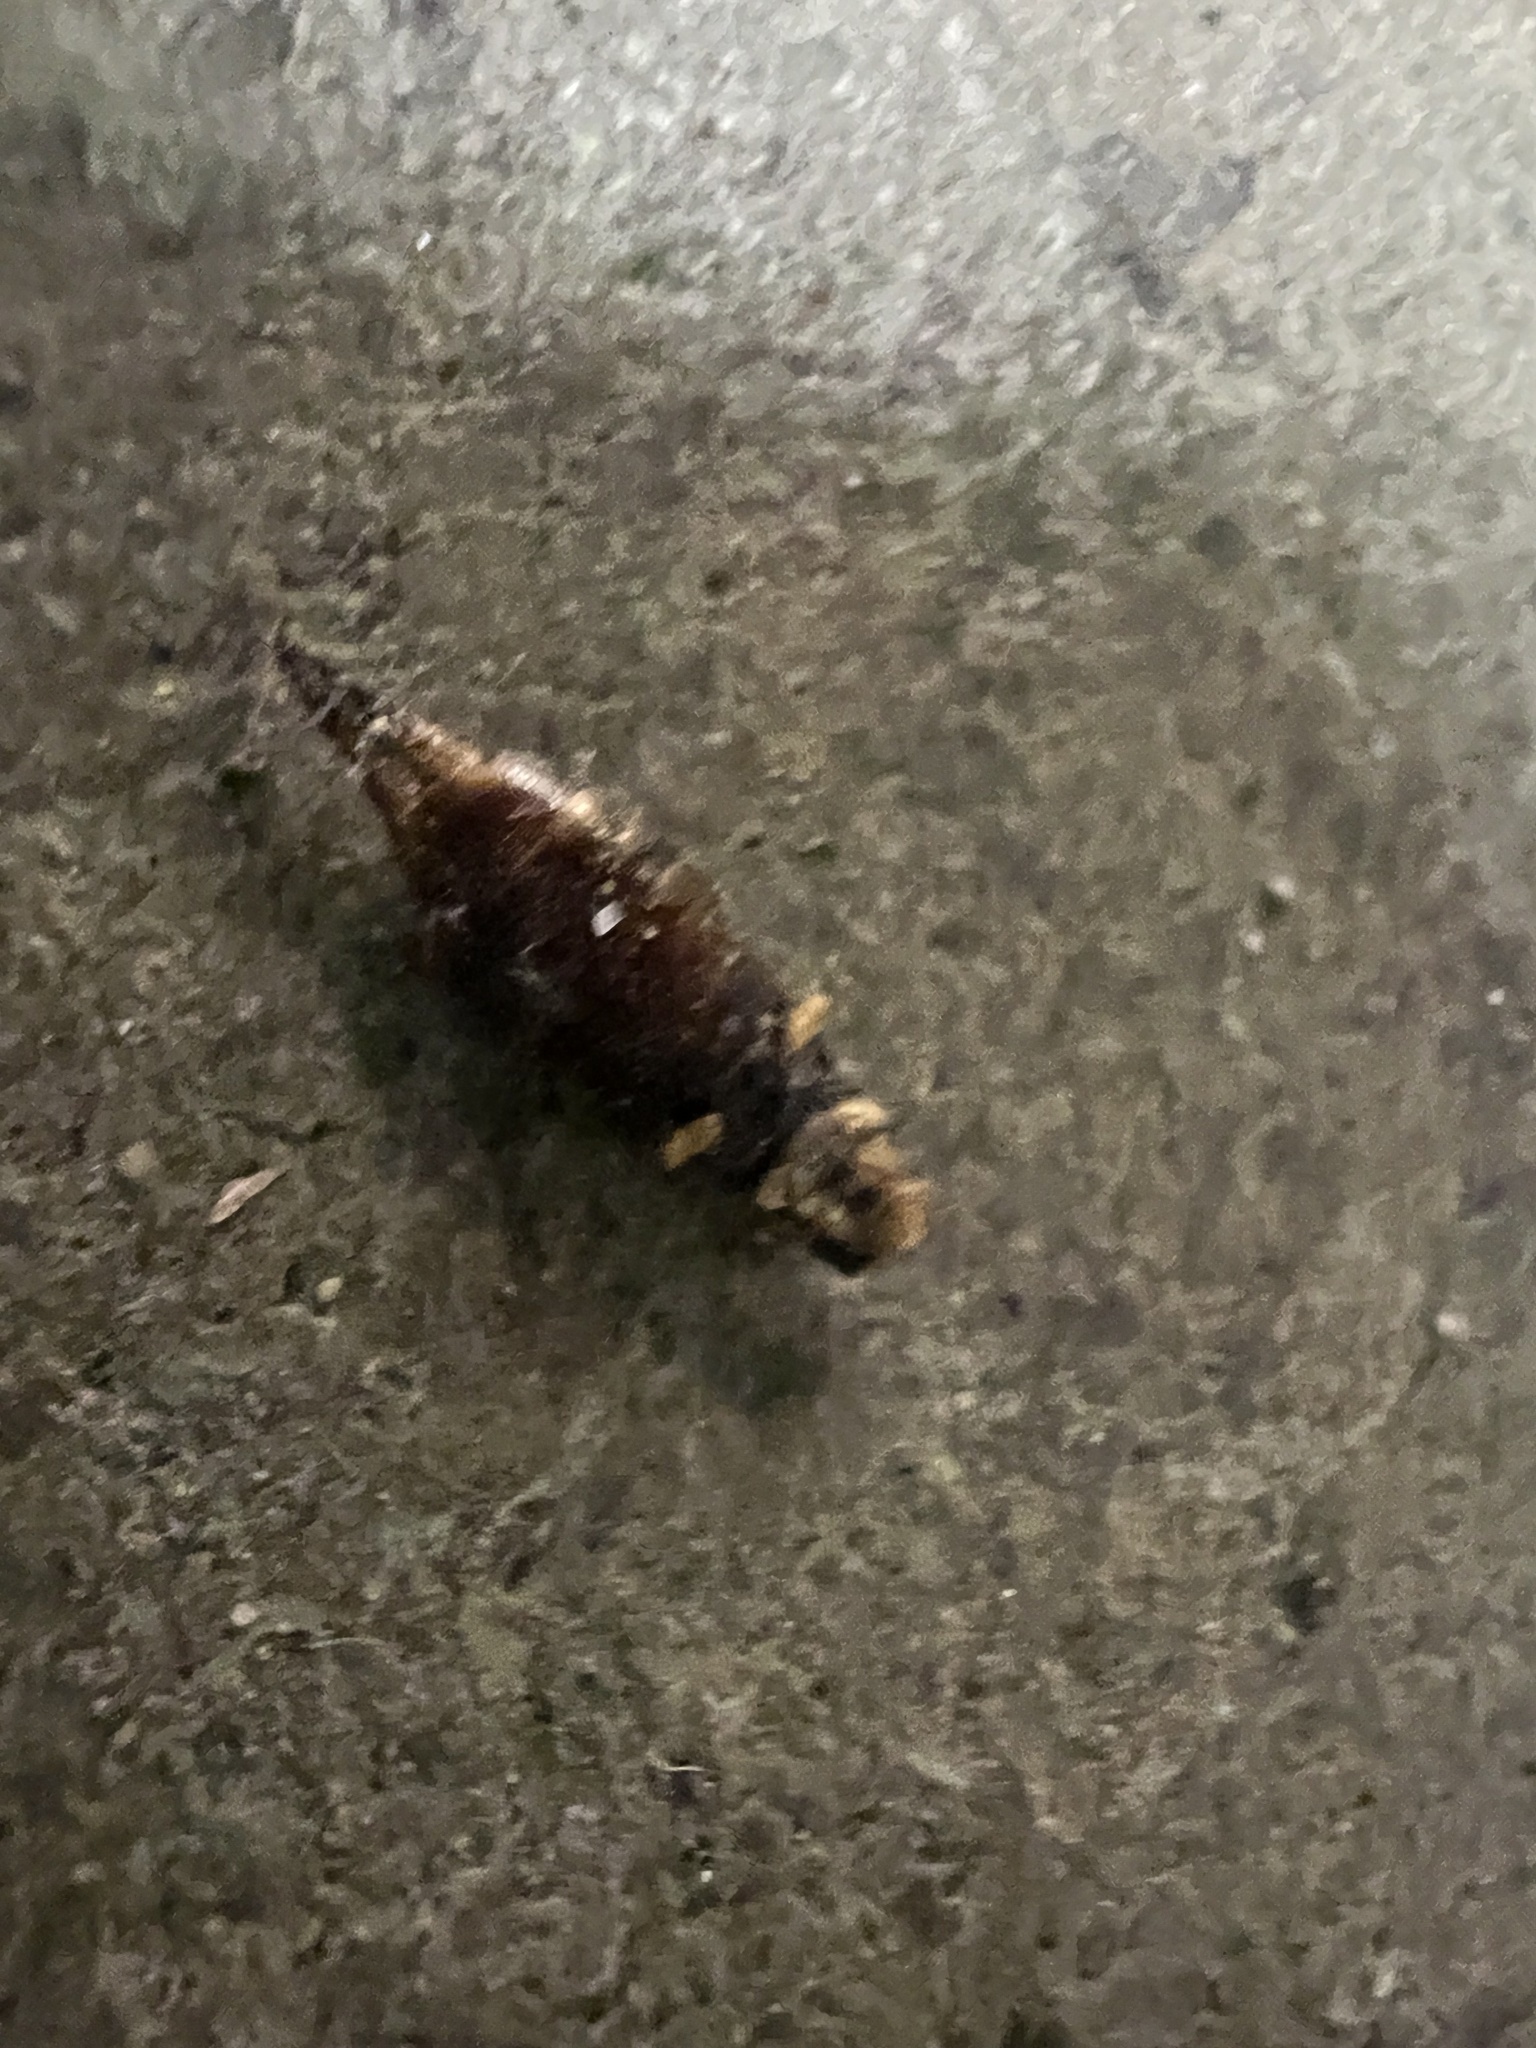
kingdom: Animalia
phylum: Arthropoda
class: Insecta
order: Dermaptera
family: Forficulidae
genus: Forficula
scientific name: Forficula
